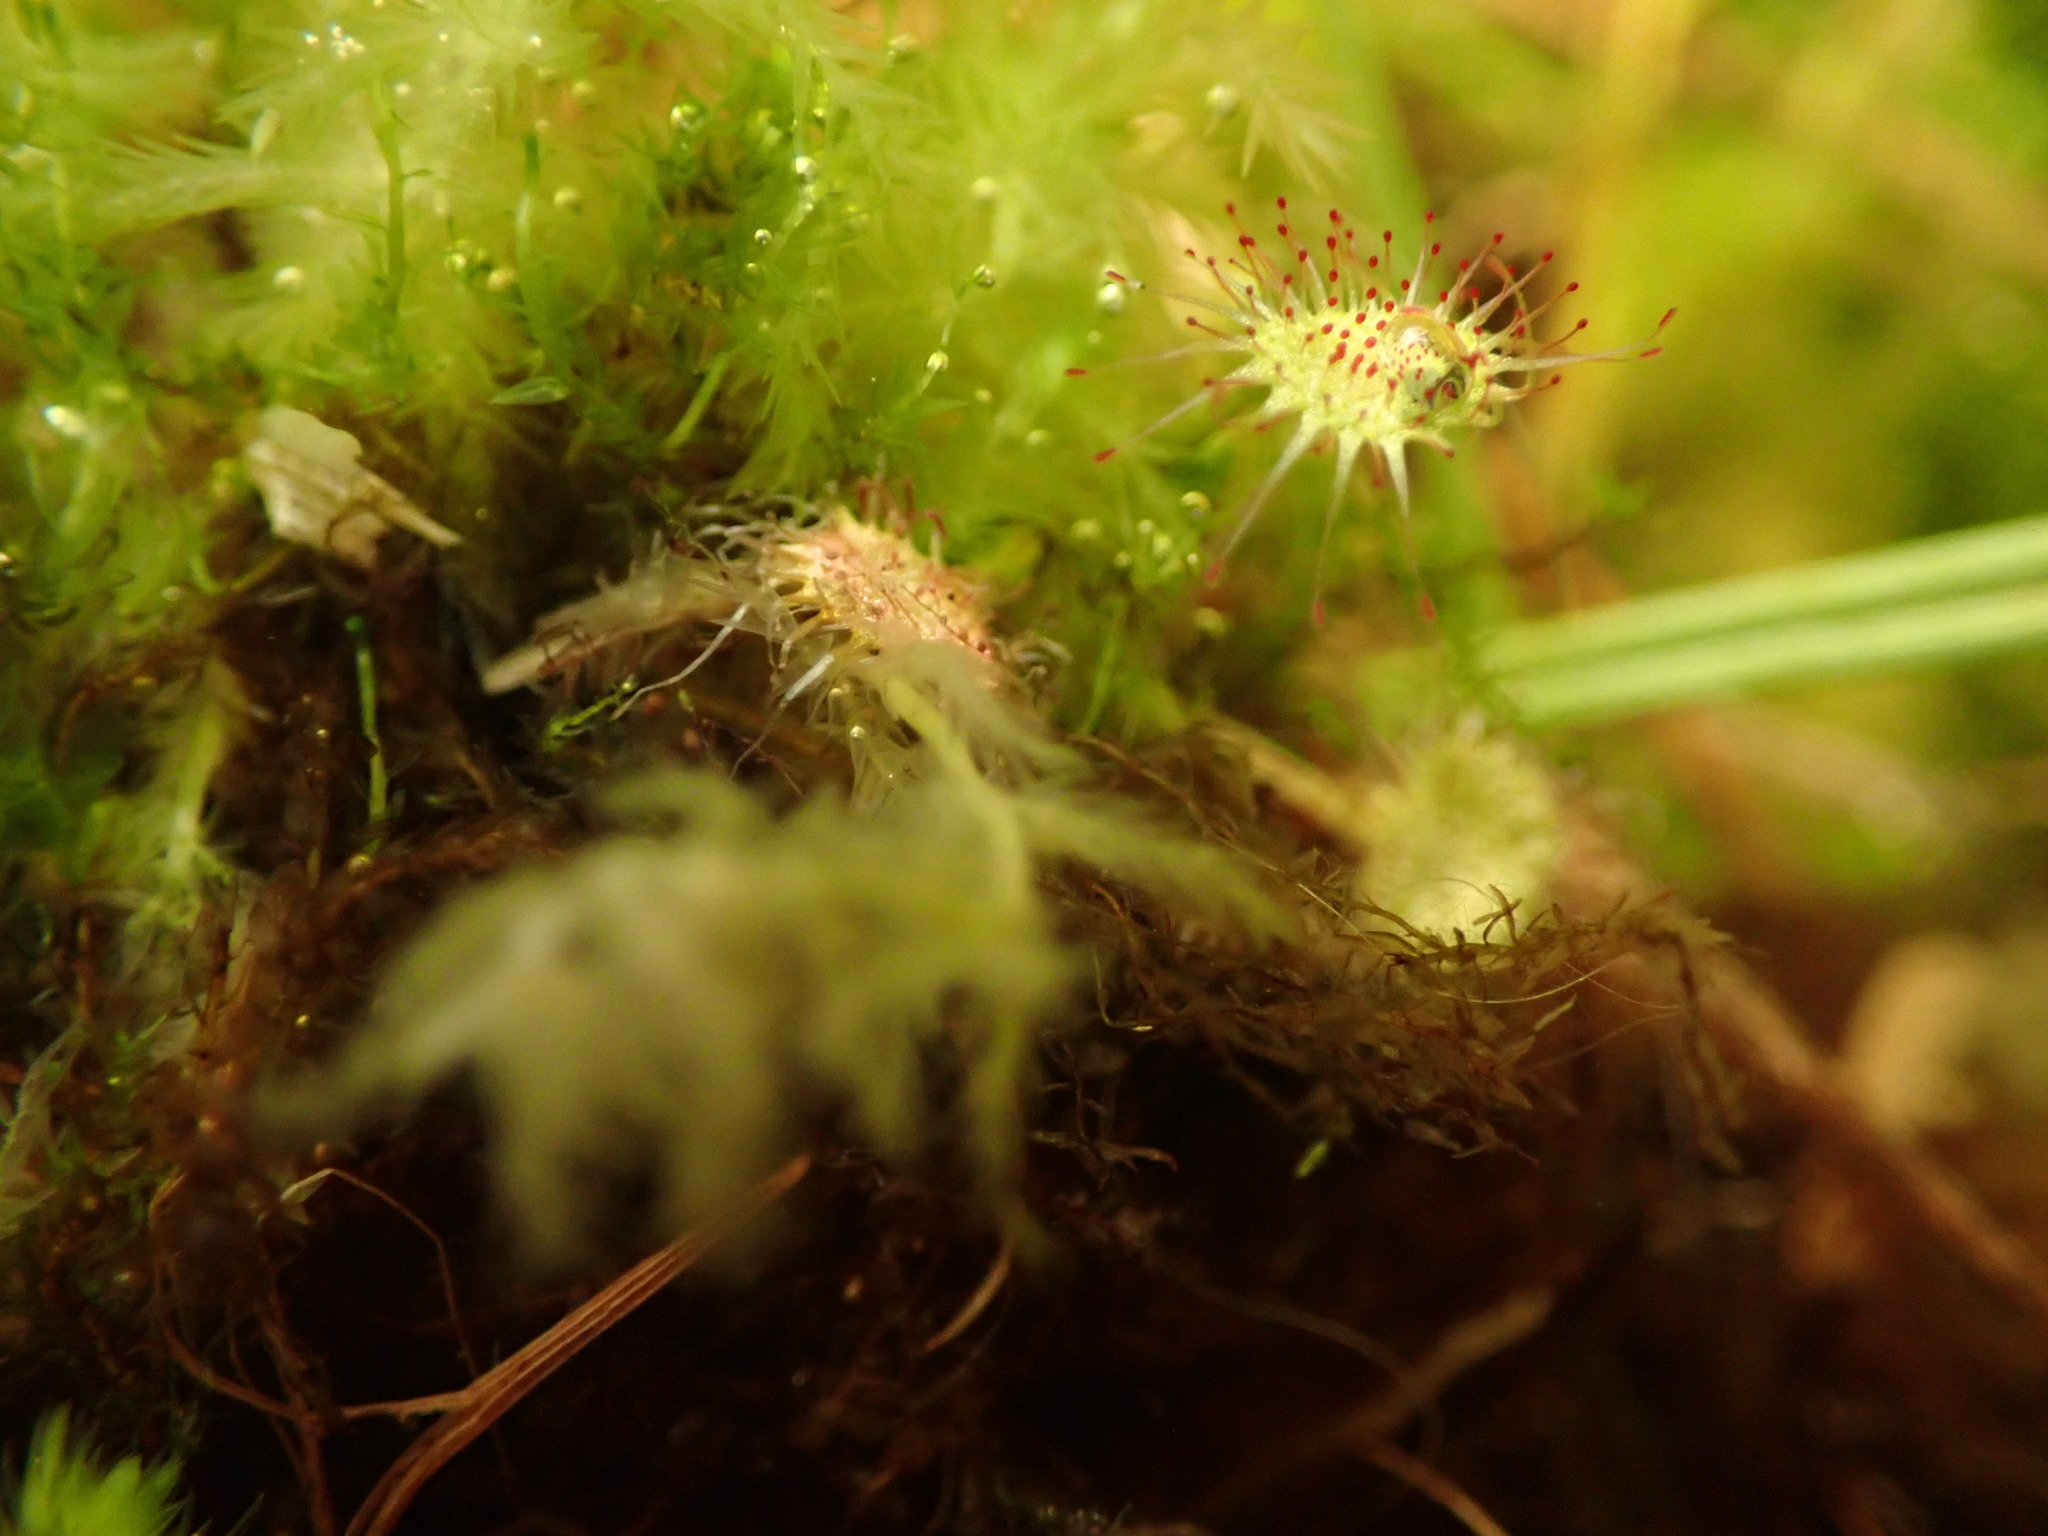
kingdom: Plantae
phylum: Tracheophyta
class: Magnoliopsida
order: Caryophyllales
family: Droseraceae
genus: Drosera
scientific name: Drosera rotundifolia
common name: Round-leaved sundew
